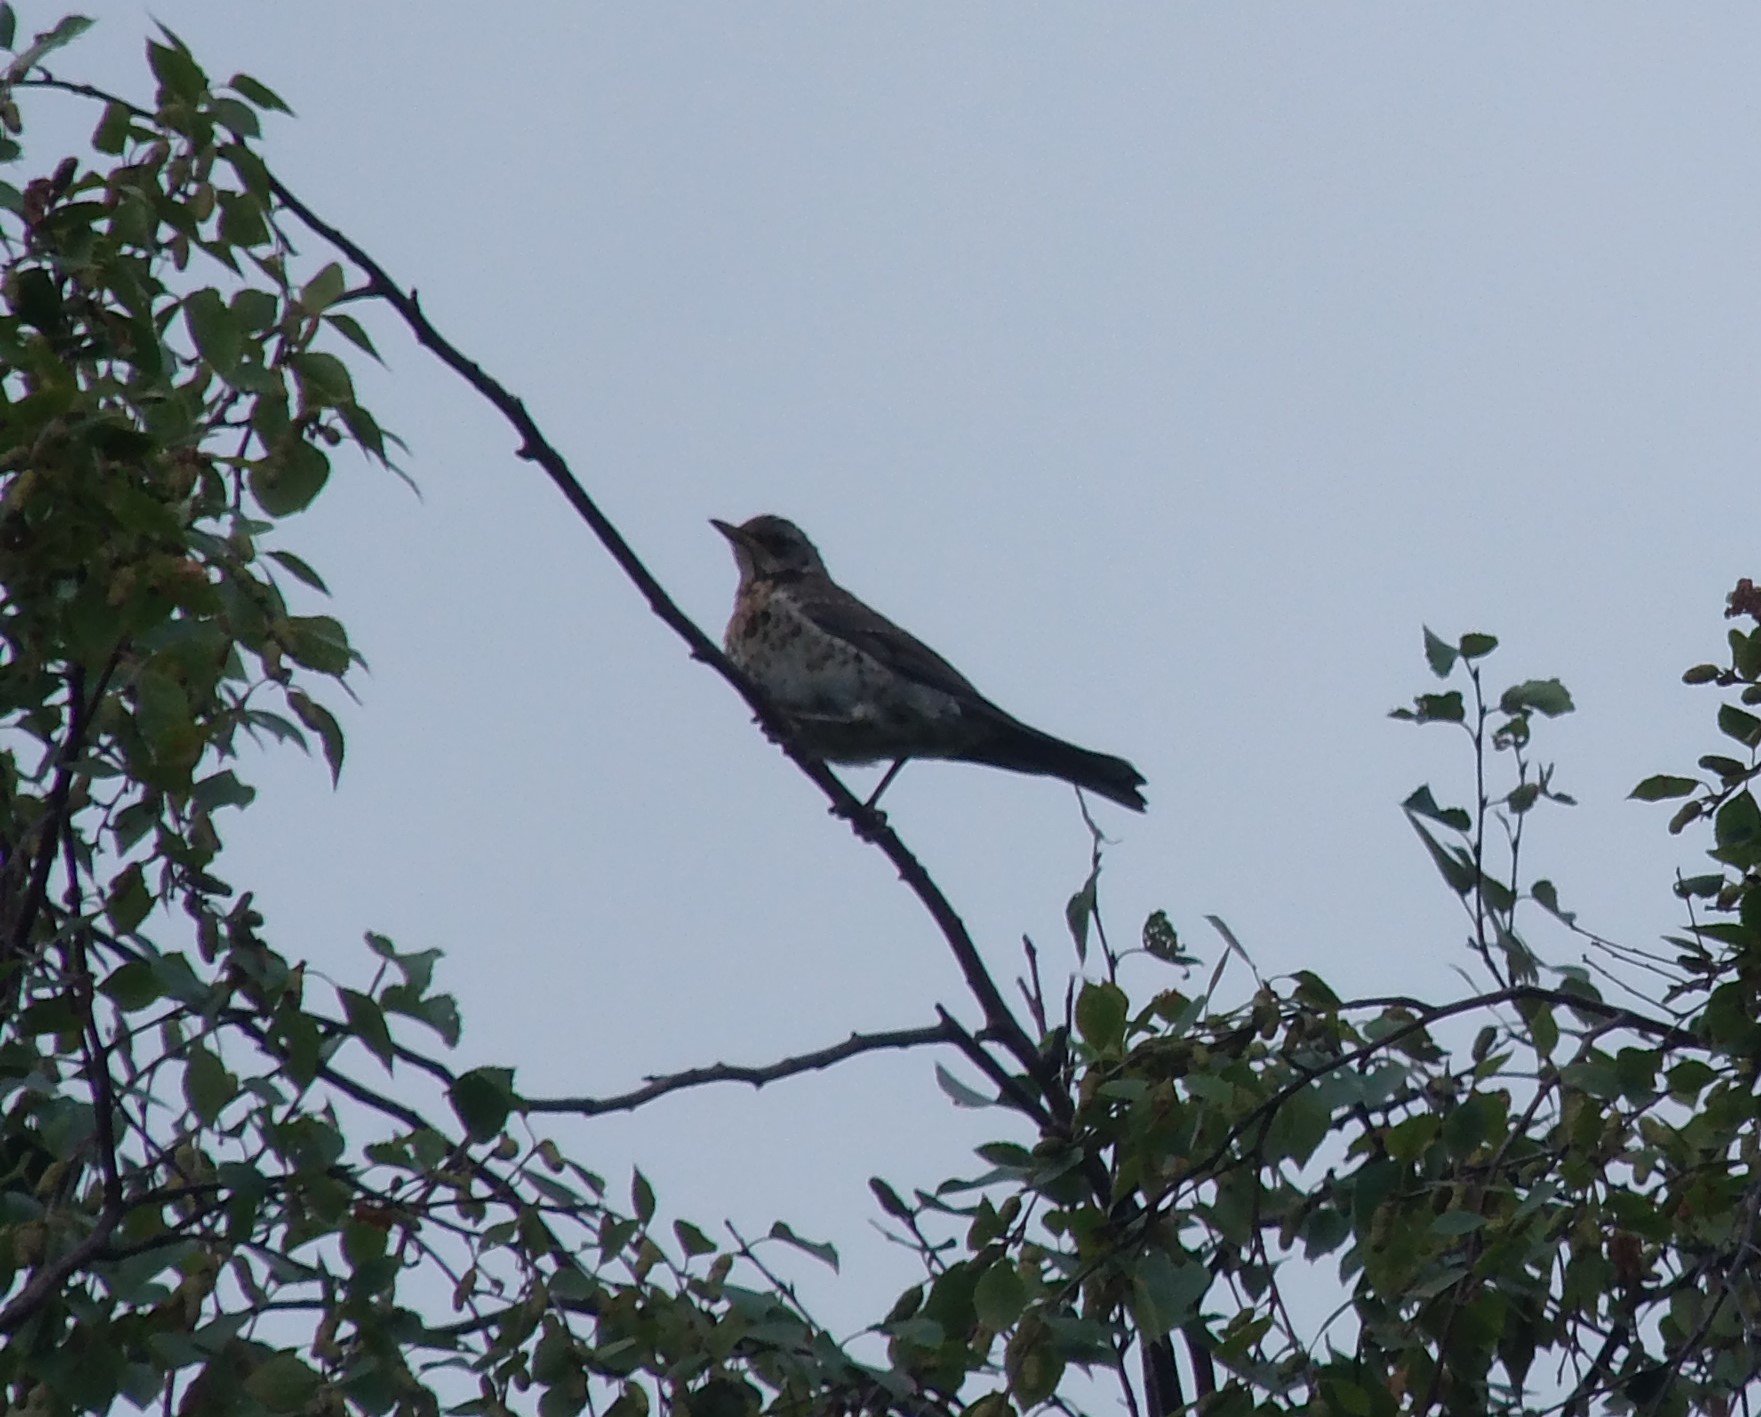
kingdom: Animalia
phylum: Chordata
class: Aves
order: Passeriformes
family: Turdidae
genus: Turdus
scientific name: Turdus pilaris
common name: Fieldfare
